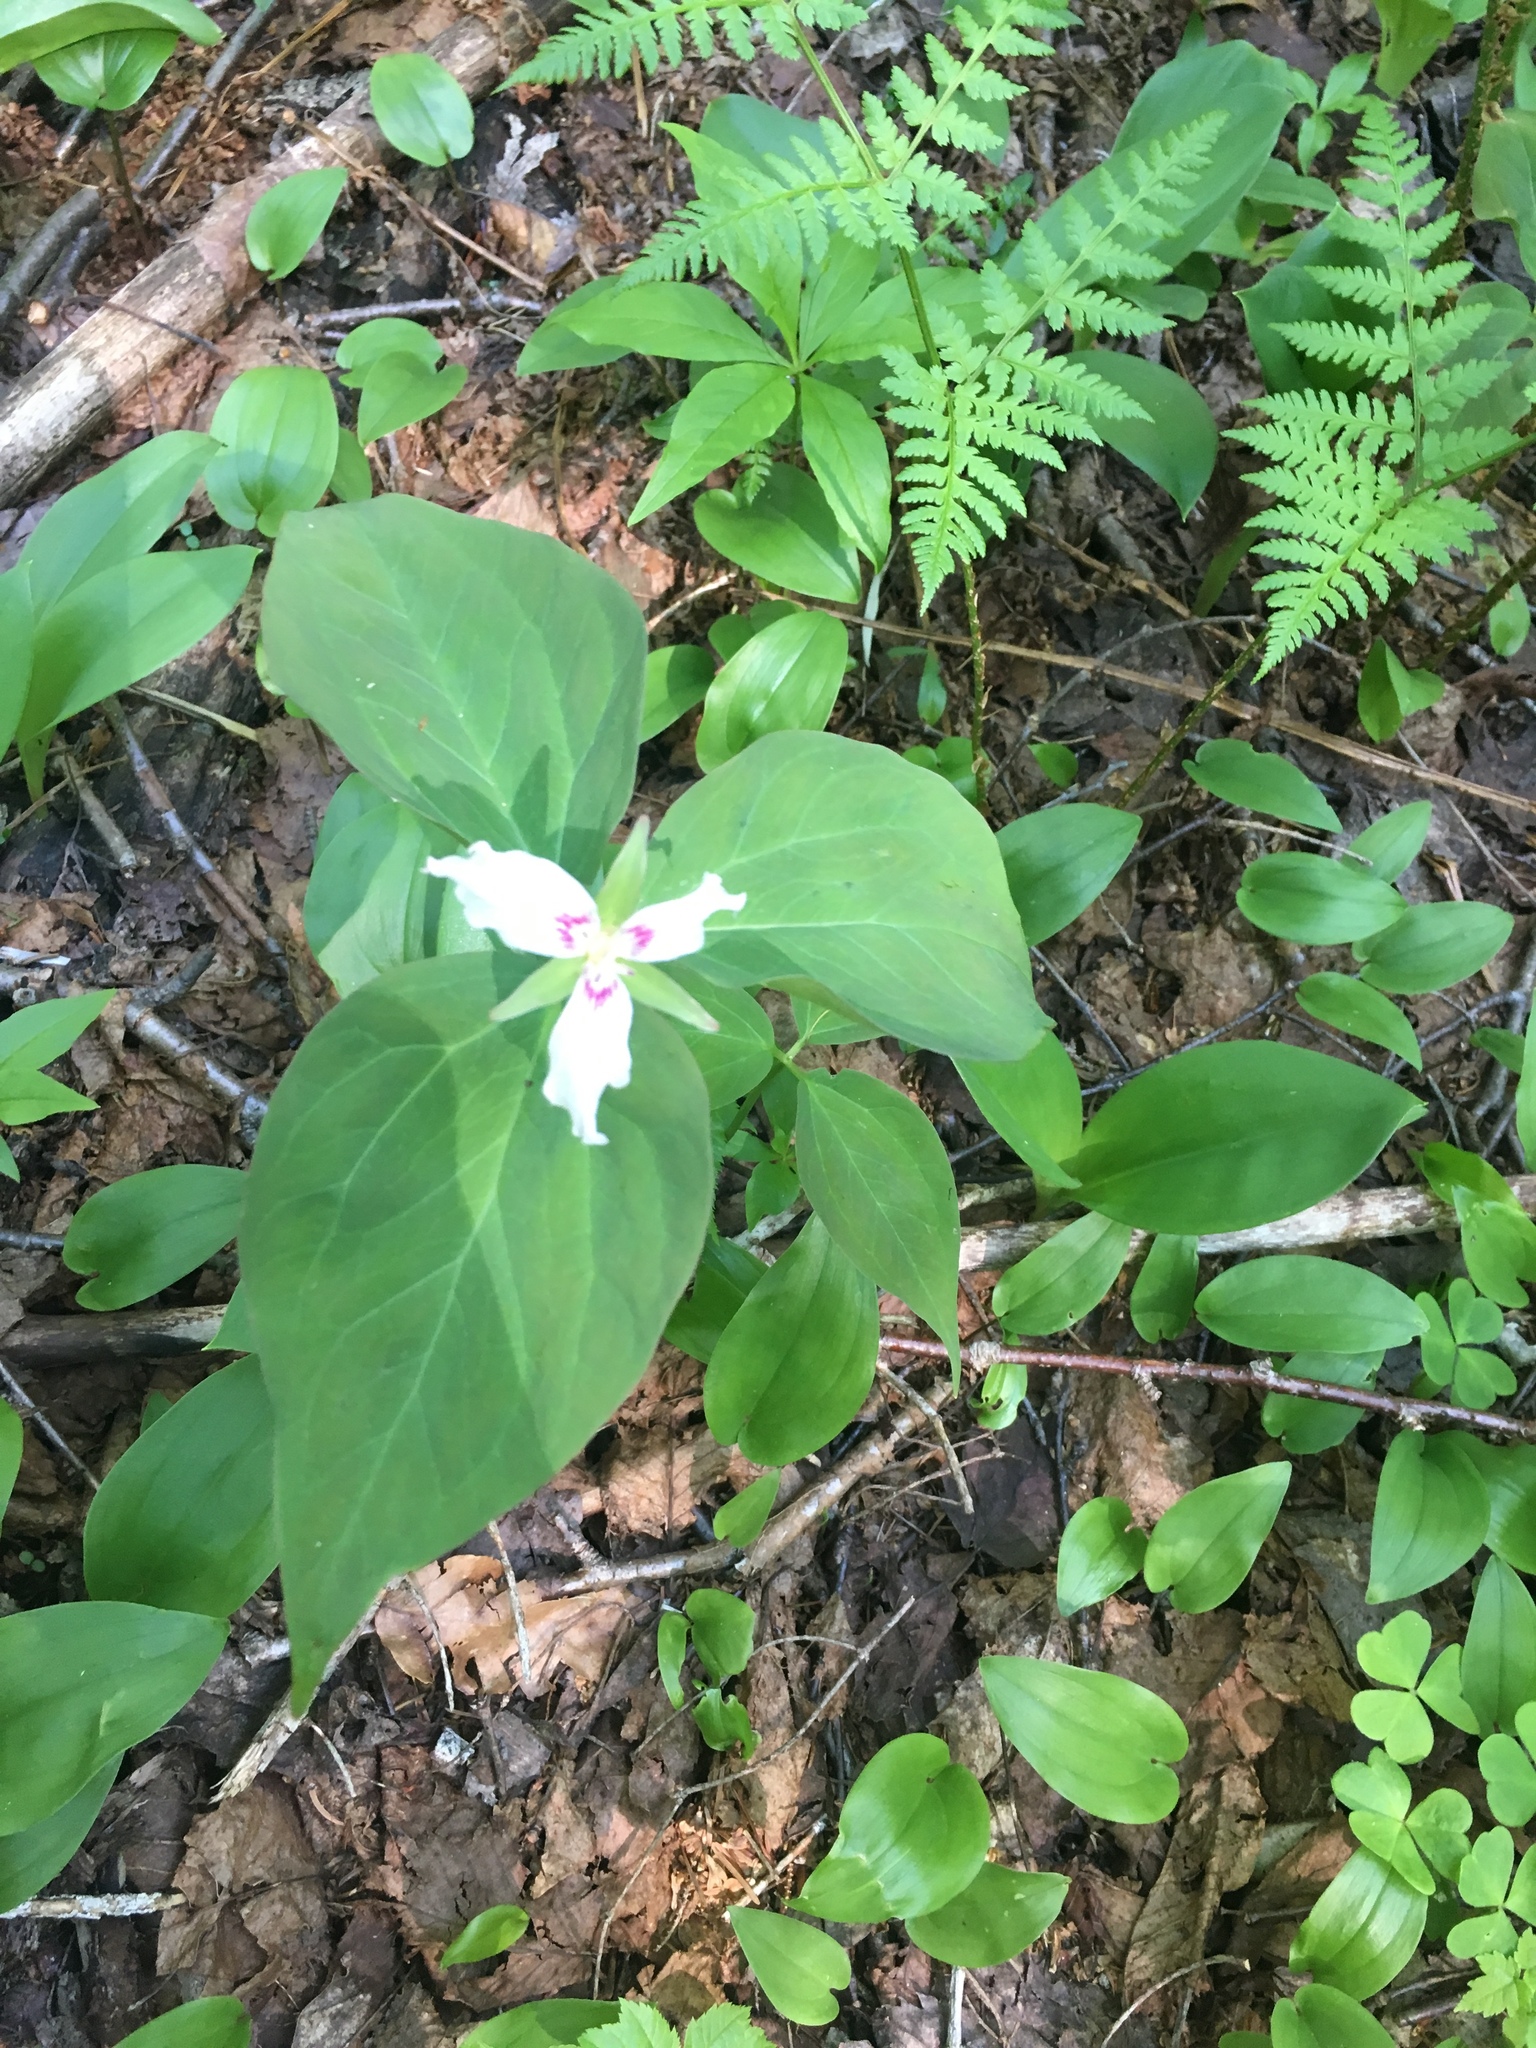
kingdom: Plantae
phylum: Tracheophyta
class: Liliopsida
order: Liliales
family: Melanthiaceae
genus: Trillium
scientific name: Trillium undulatum
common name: Paint trillium
